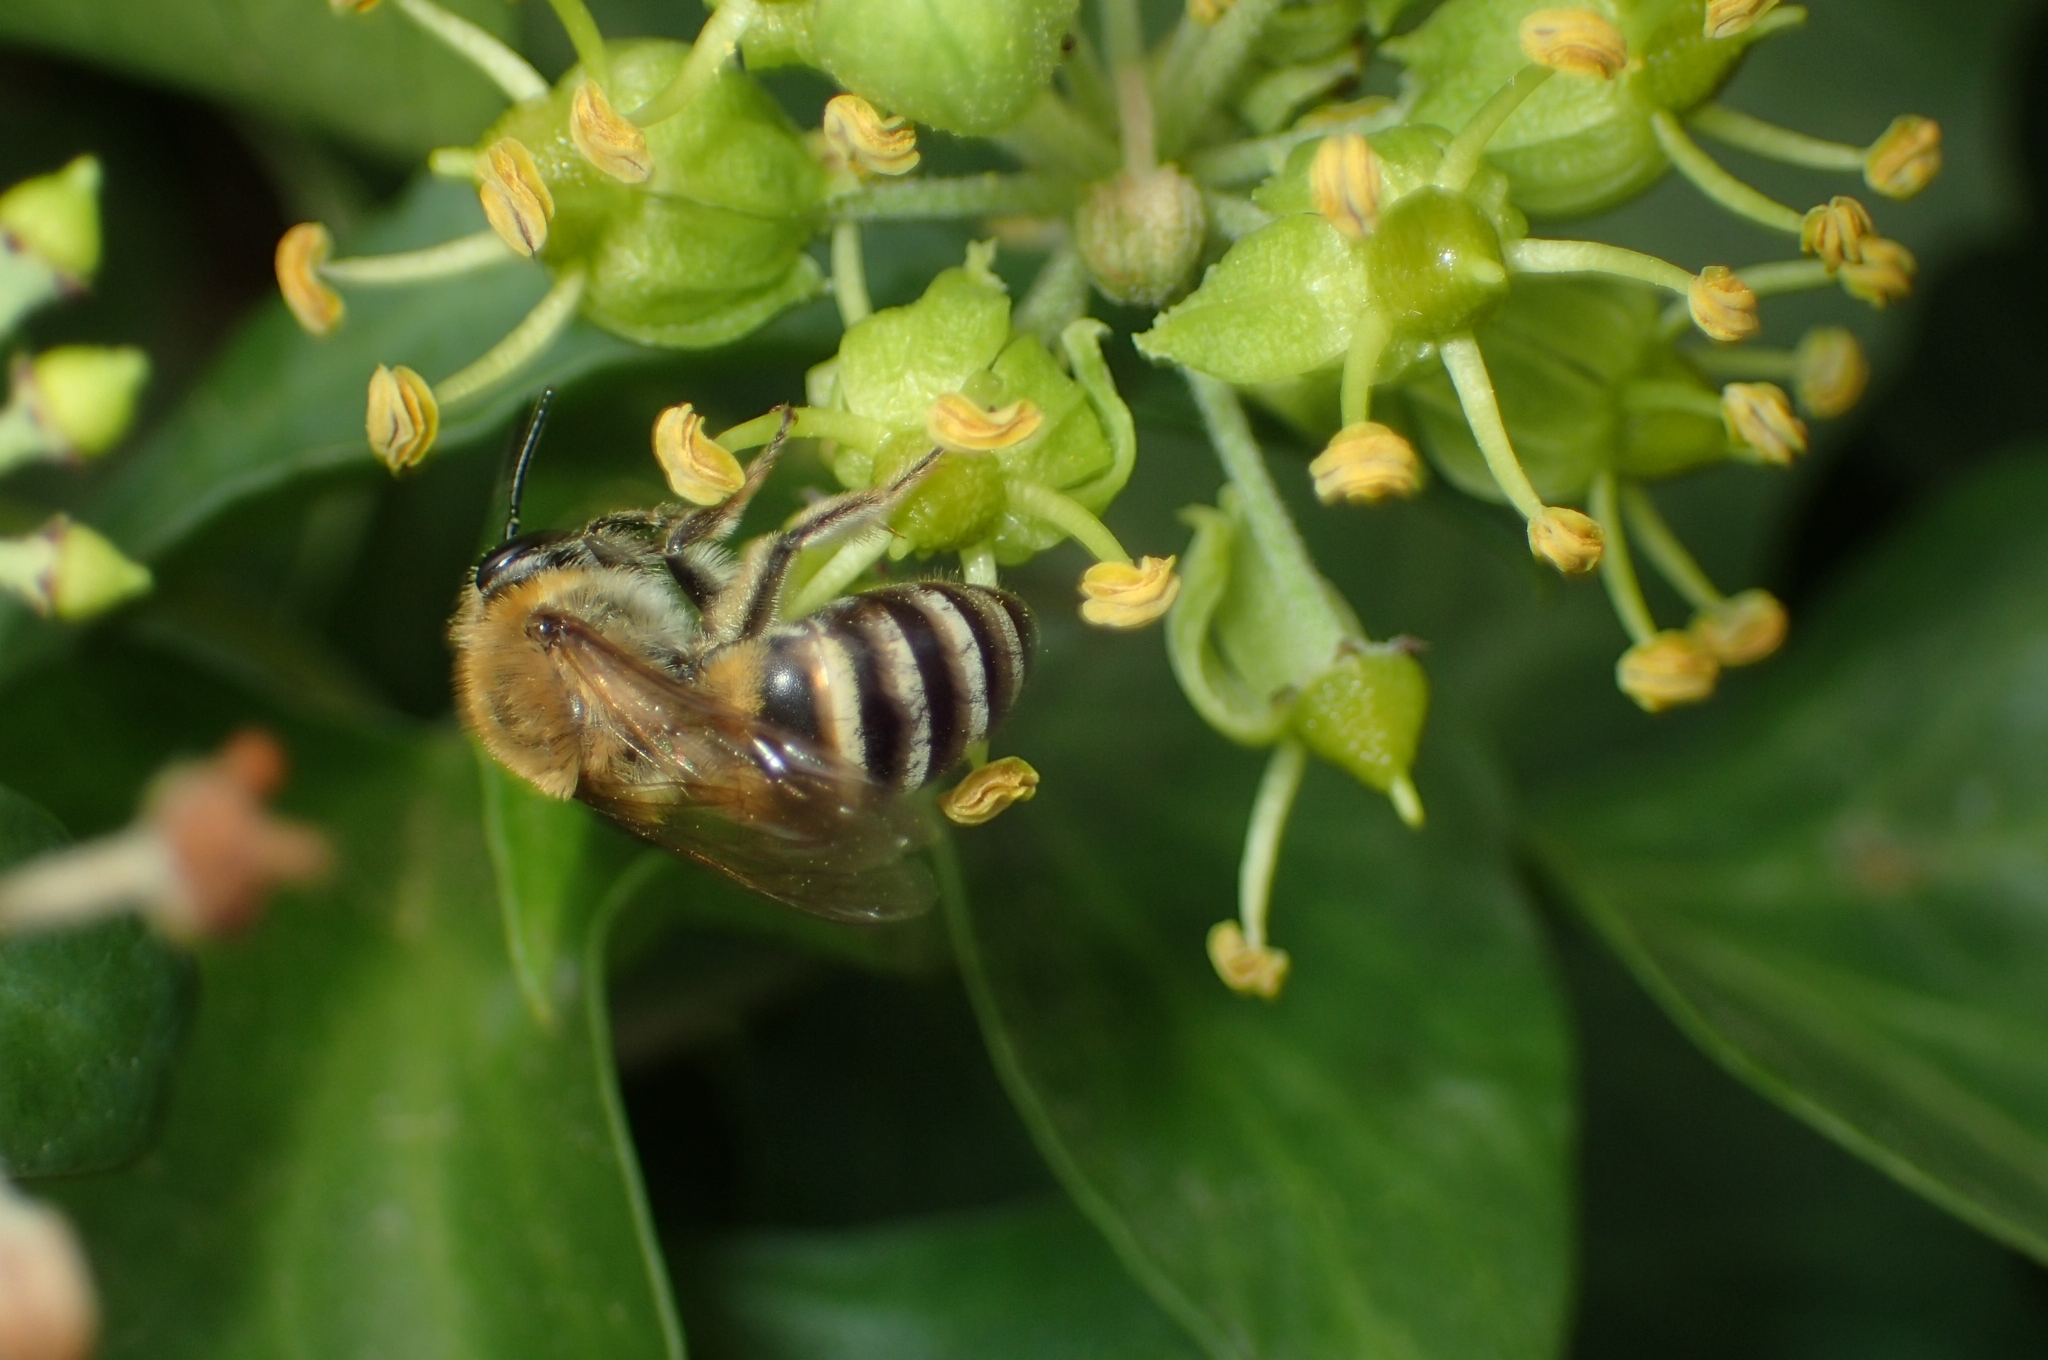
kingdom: Animalia
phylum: Arthropoda
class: Insecta
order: Hymenoptera
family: Colletidae
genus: Colletes
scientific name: Colletes hederae
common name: Ivy bee
